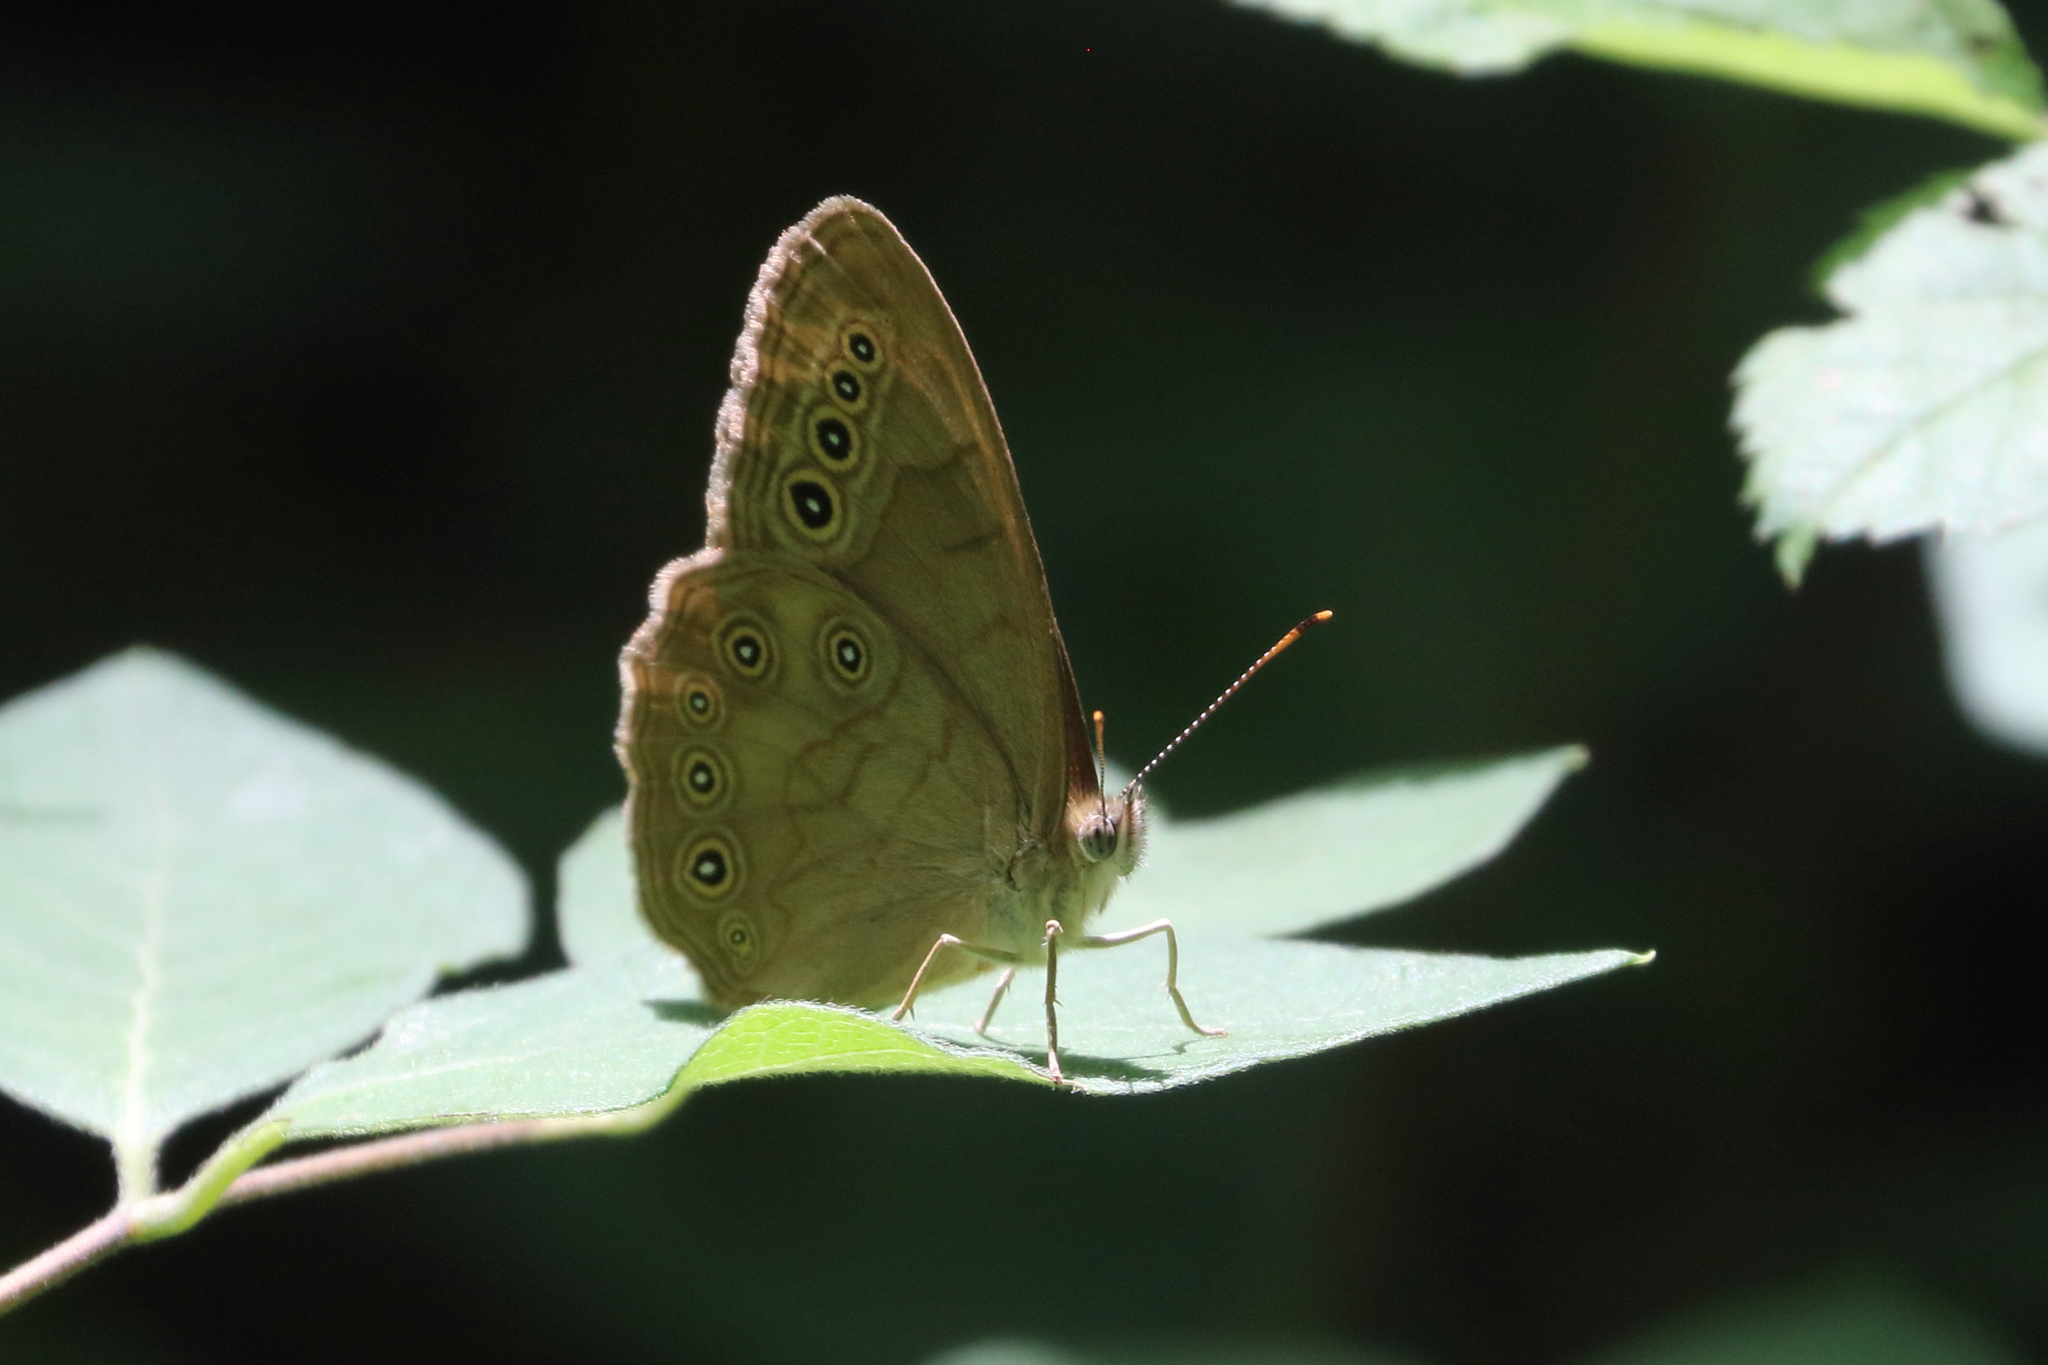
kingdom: Animalia
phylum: Arthropoda
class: Insecta
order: Lepidoptera
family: Nymphalidae
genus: Lethe
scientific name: Lethe eurydice
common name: Eyed brown
